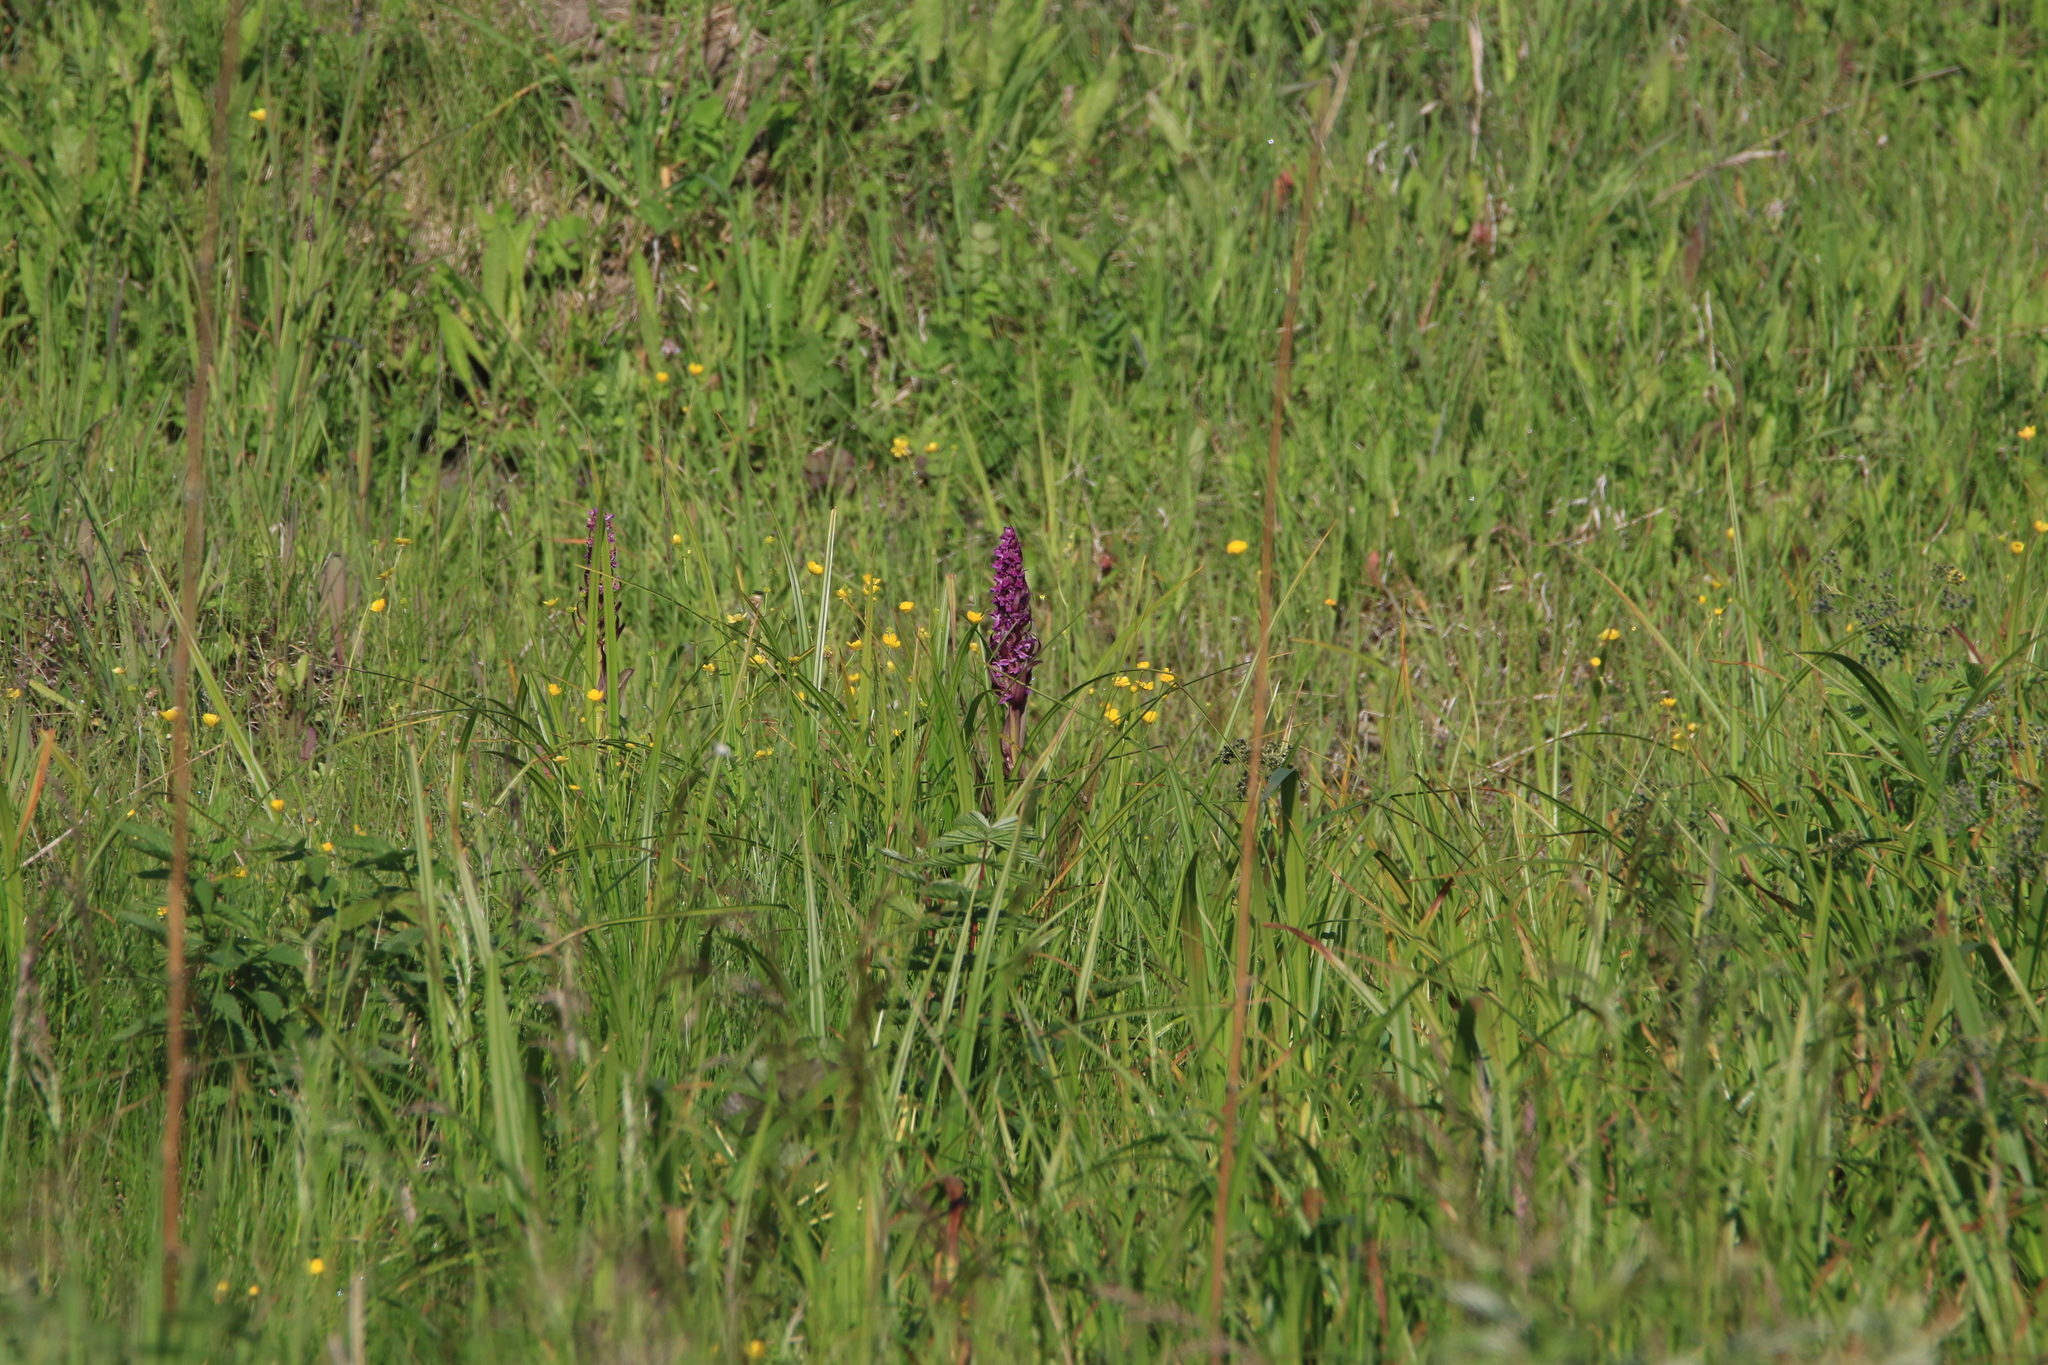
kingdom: Plantae
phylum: Tracheophyta
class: Liliopsida
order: Asparagales
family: Orchidaceae
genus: Dactylorhiza
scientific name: Dactylorhiza incarnata
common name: Early marsh-orchid
